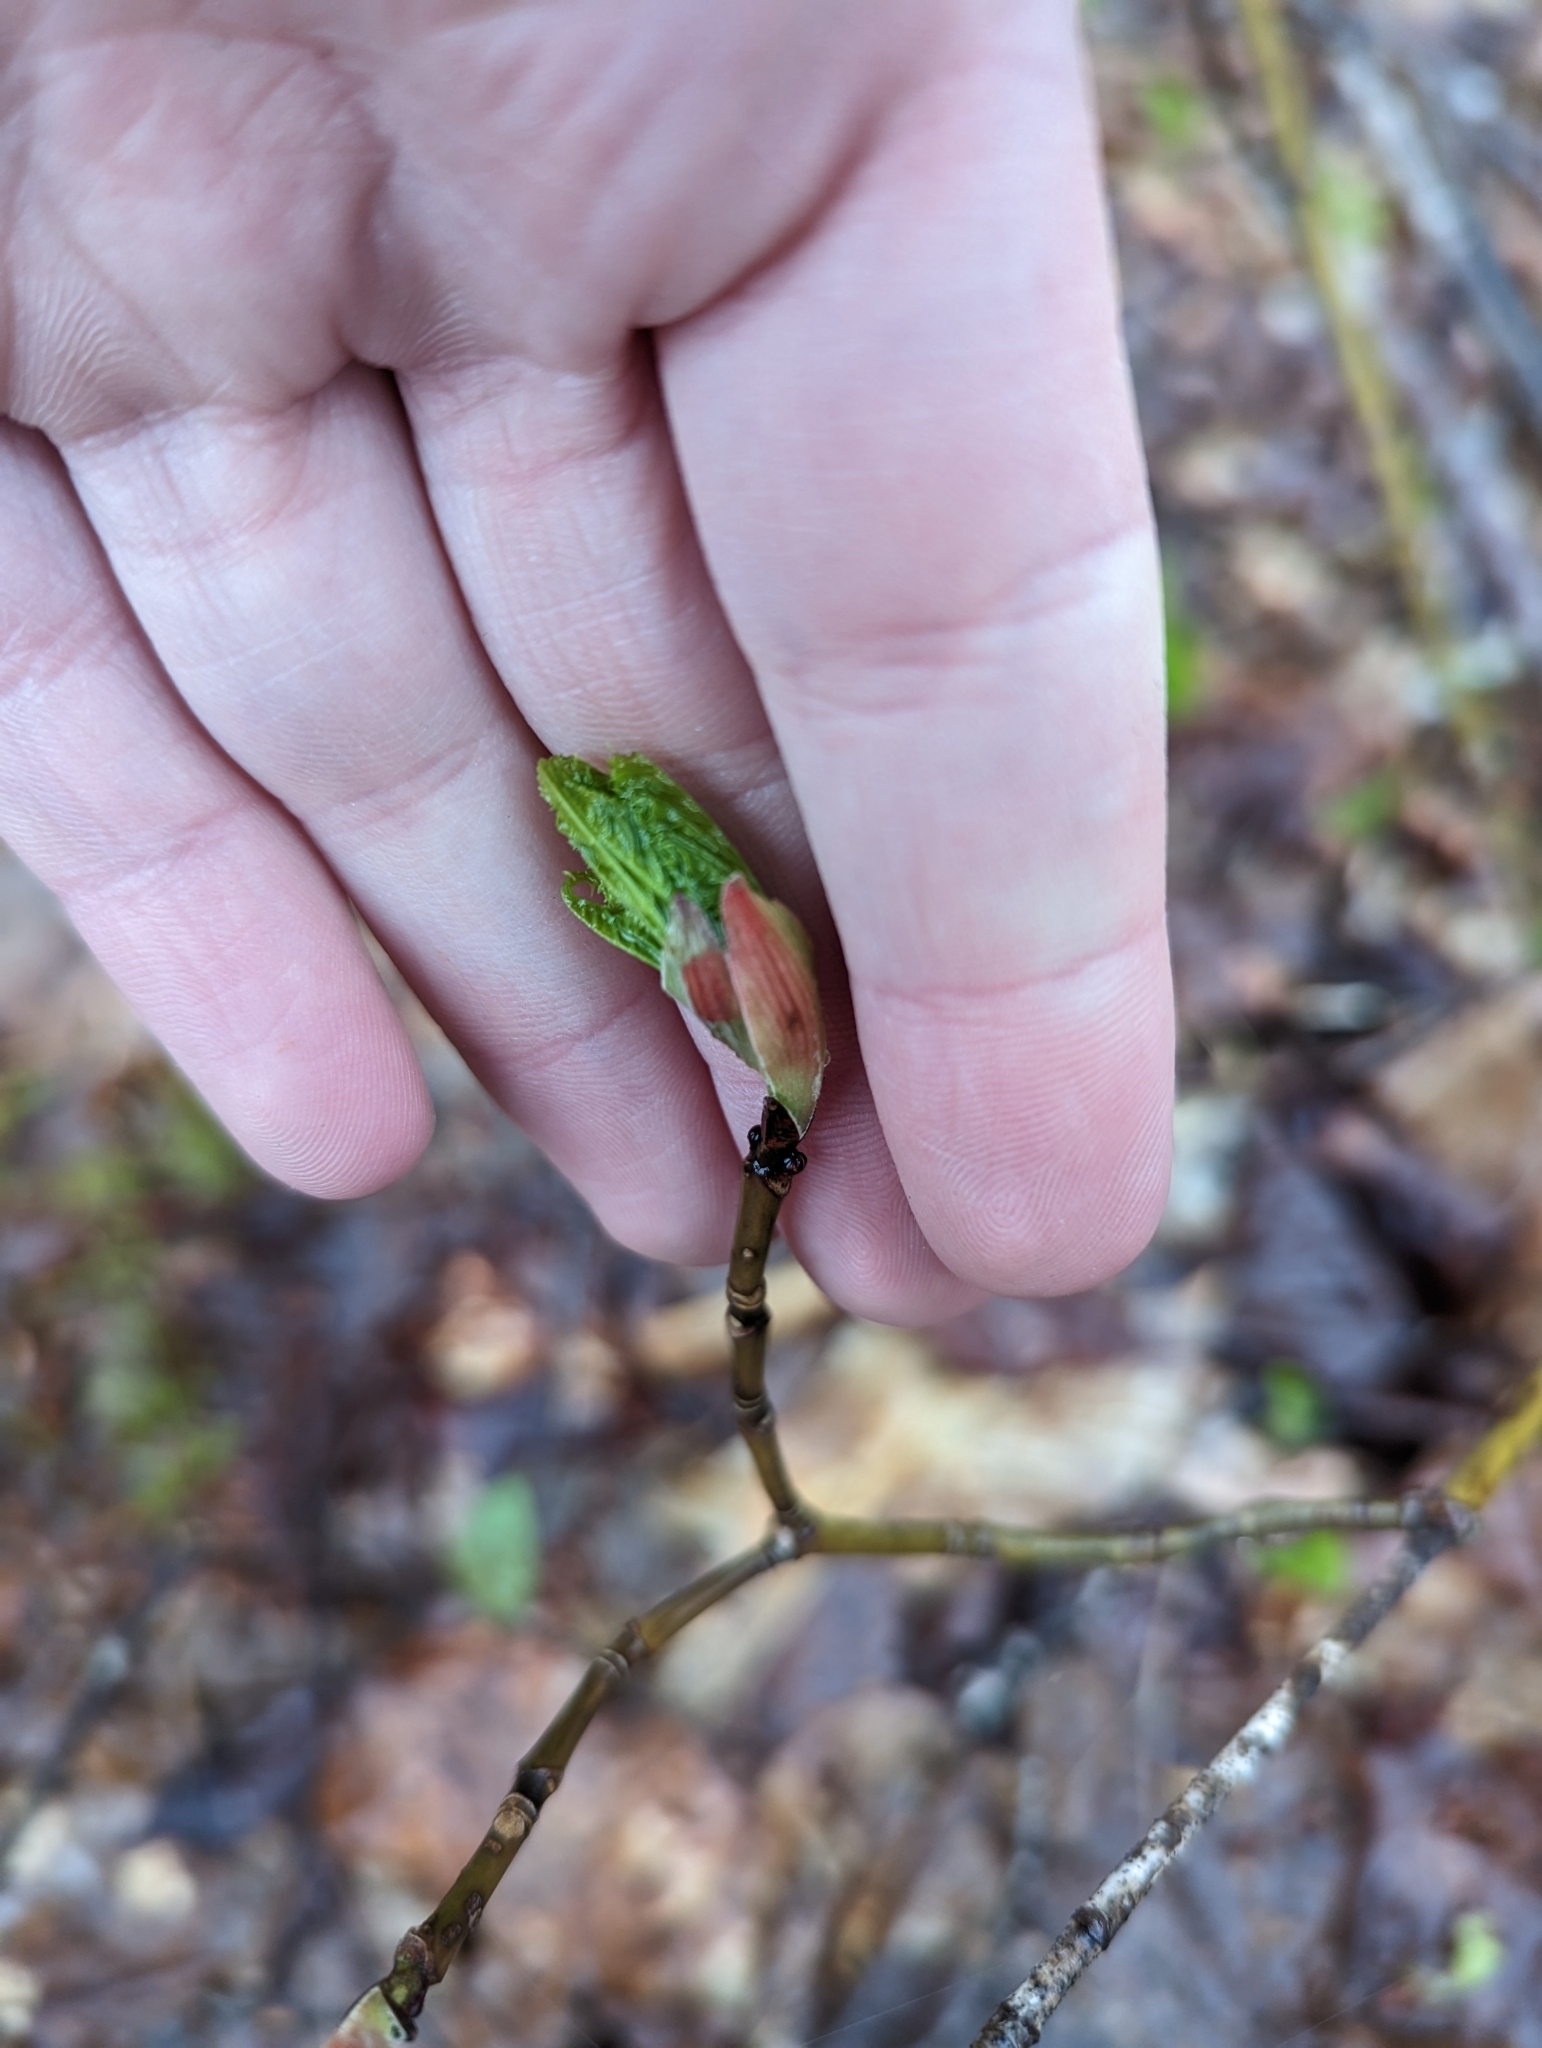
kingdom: Plantae
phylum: Tracheophyta
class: Magnoliopsida
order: Sapindales
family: Sapindaceae
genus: Acer
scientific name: Acer pensylvanicum
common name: Moosewood
